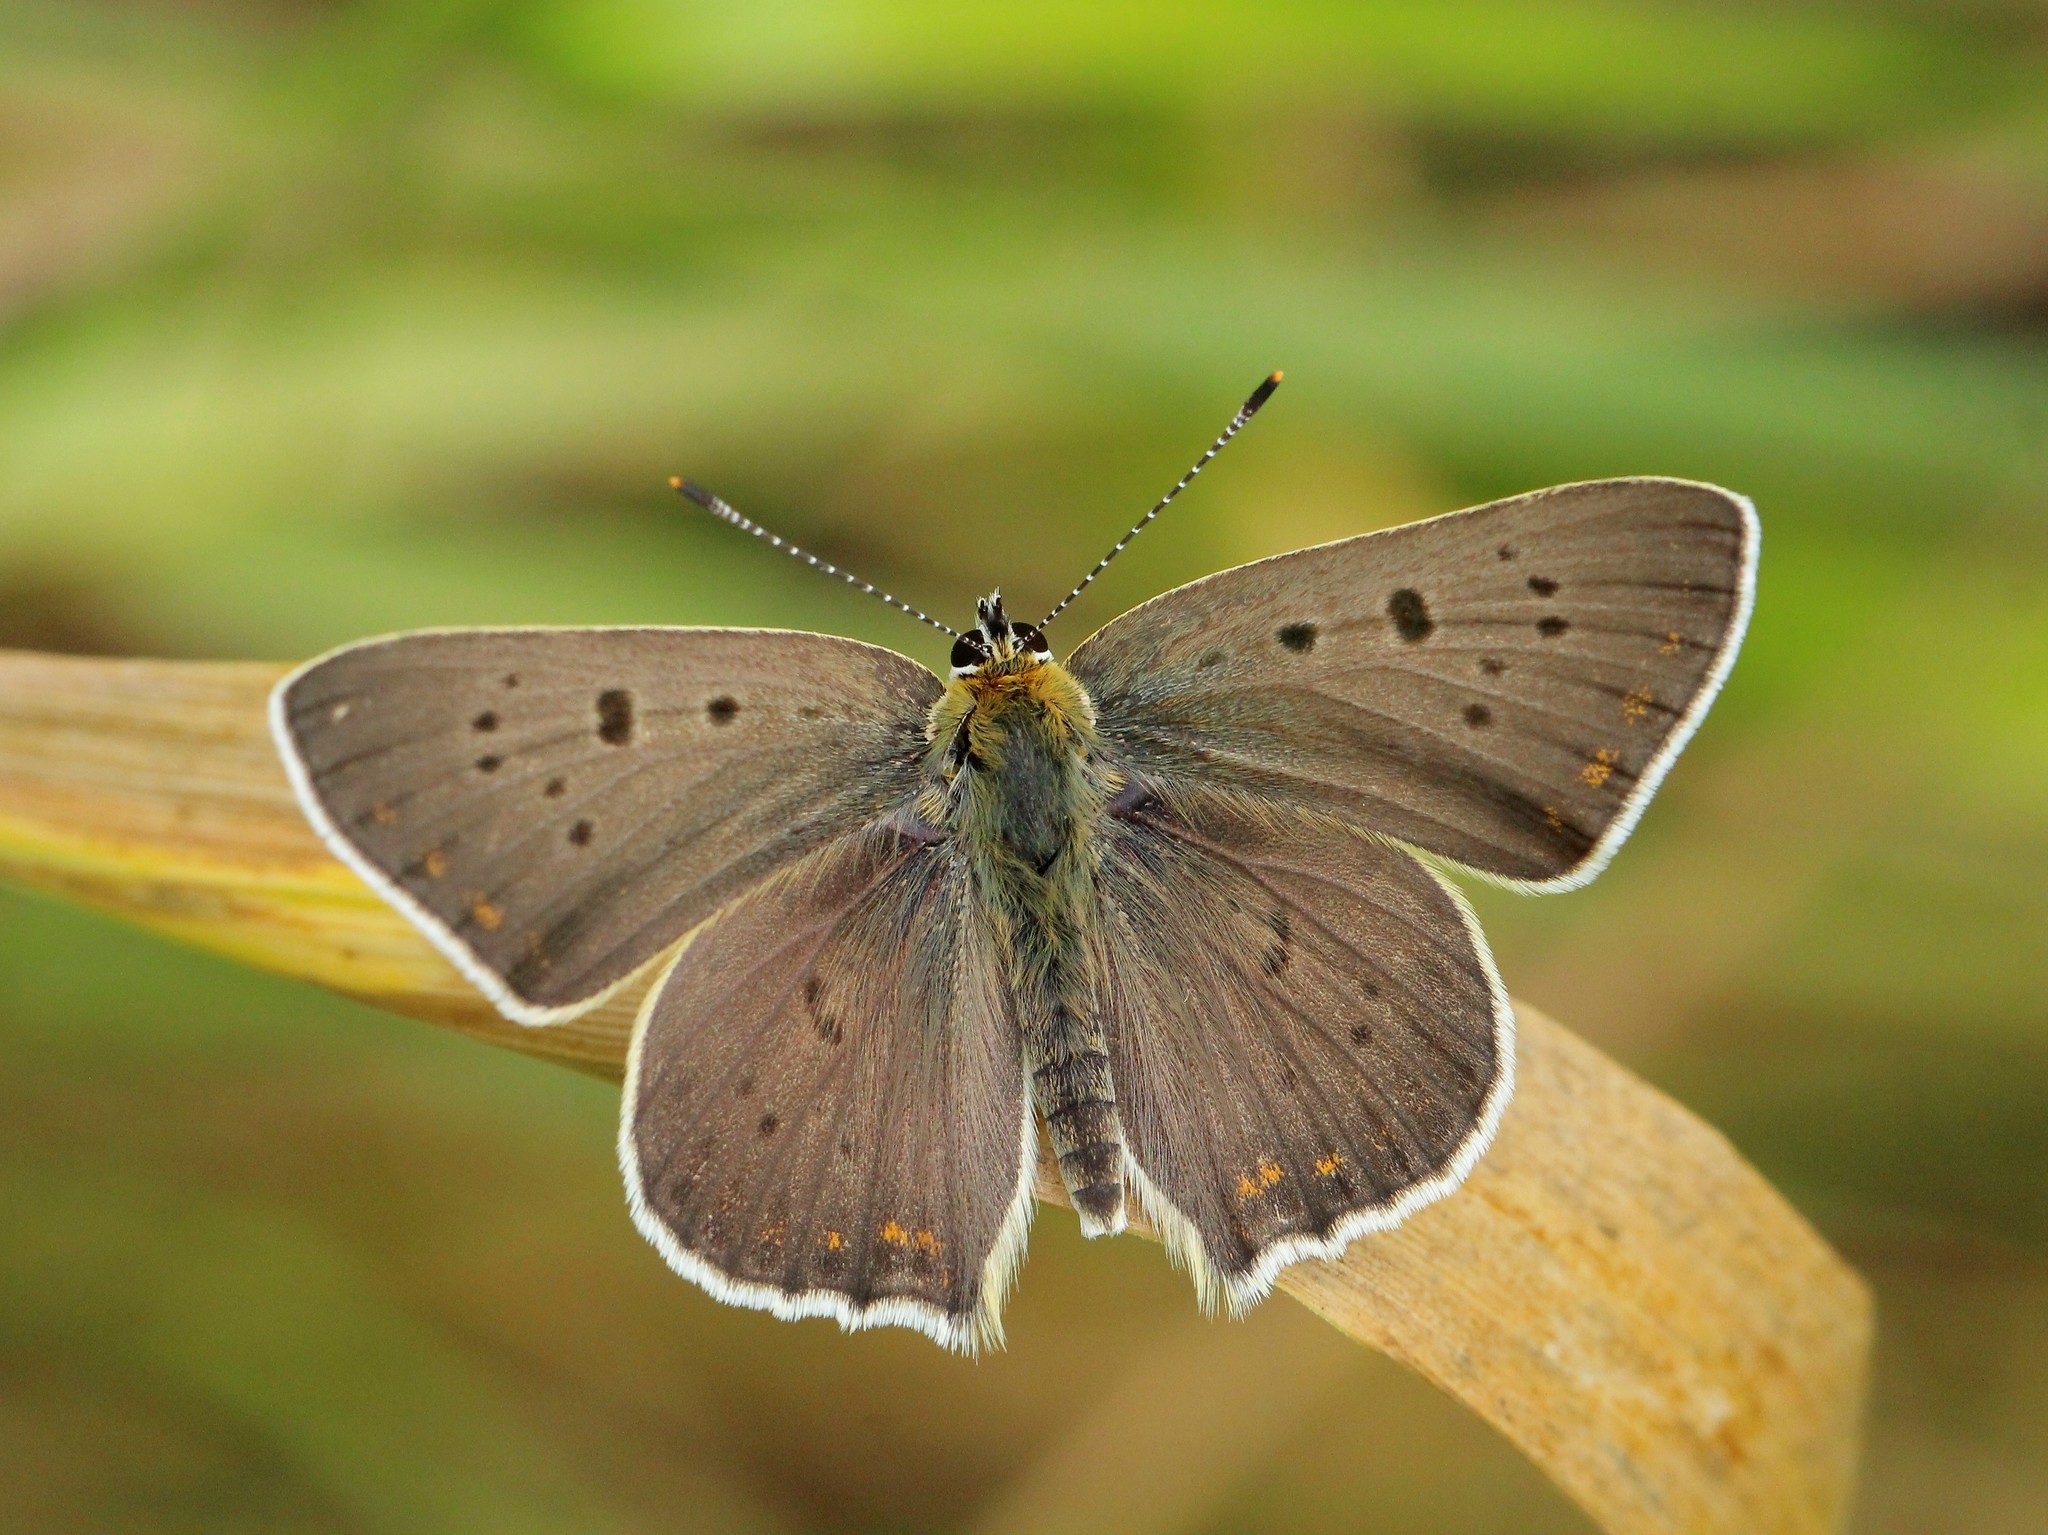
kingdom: Animalia
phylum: Arthropoda
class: Insecta
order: Lepidoptera
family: Lycaenidae
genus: Loweia
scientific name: Loweia tityrus
